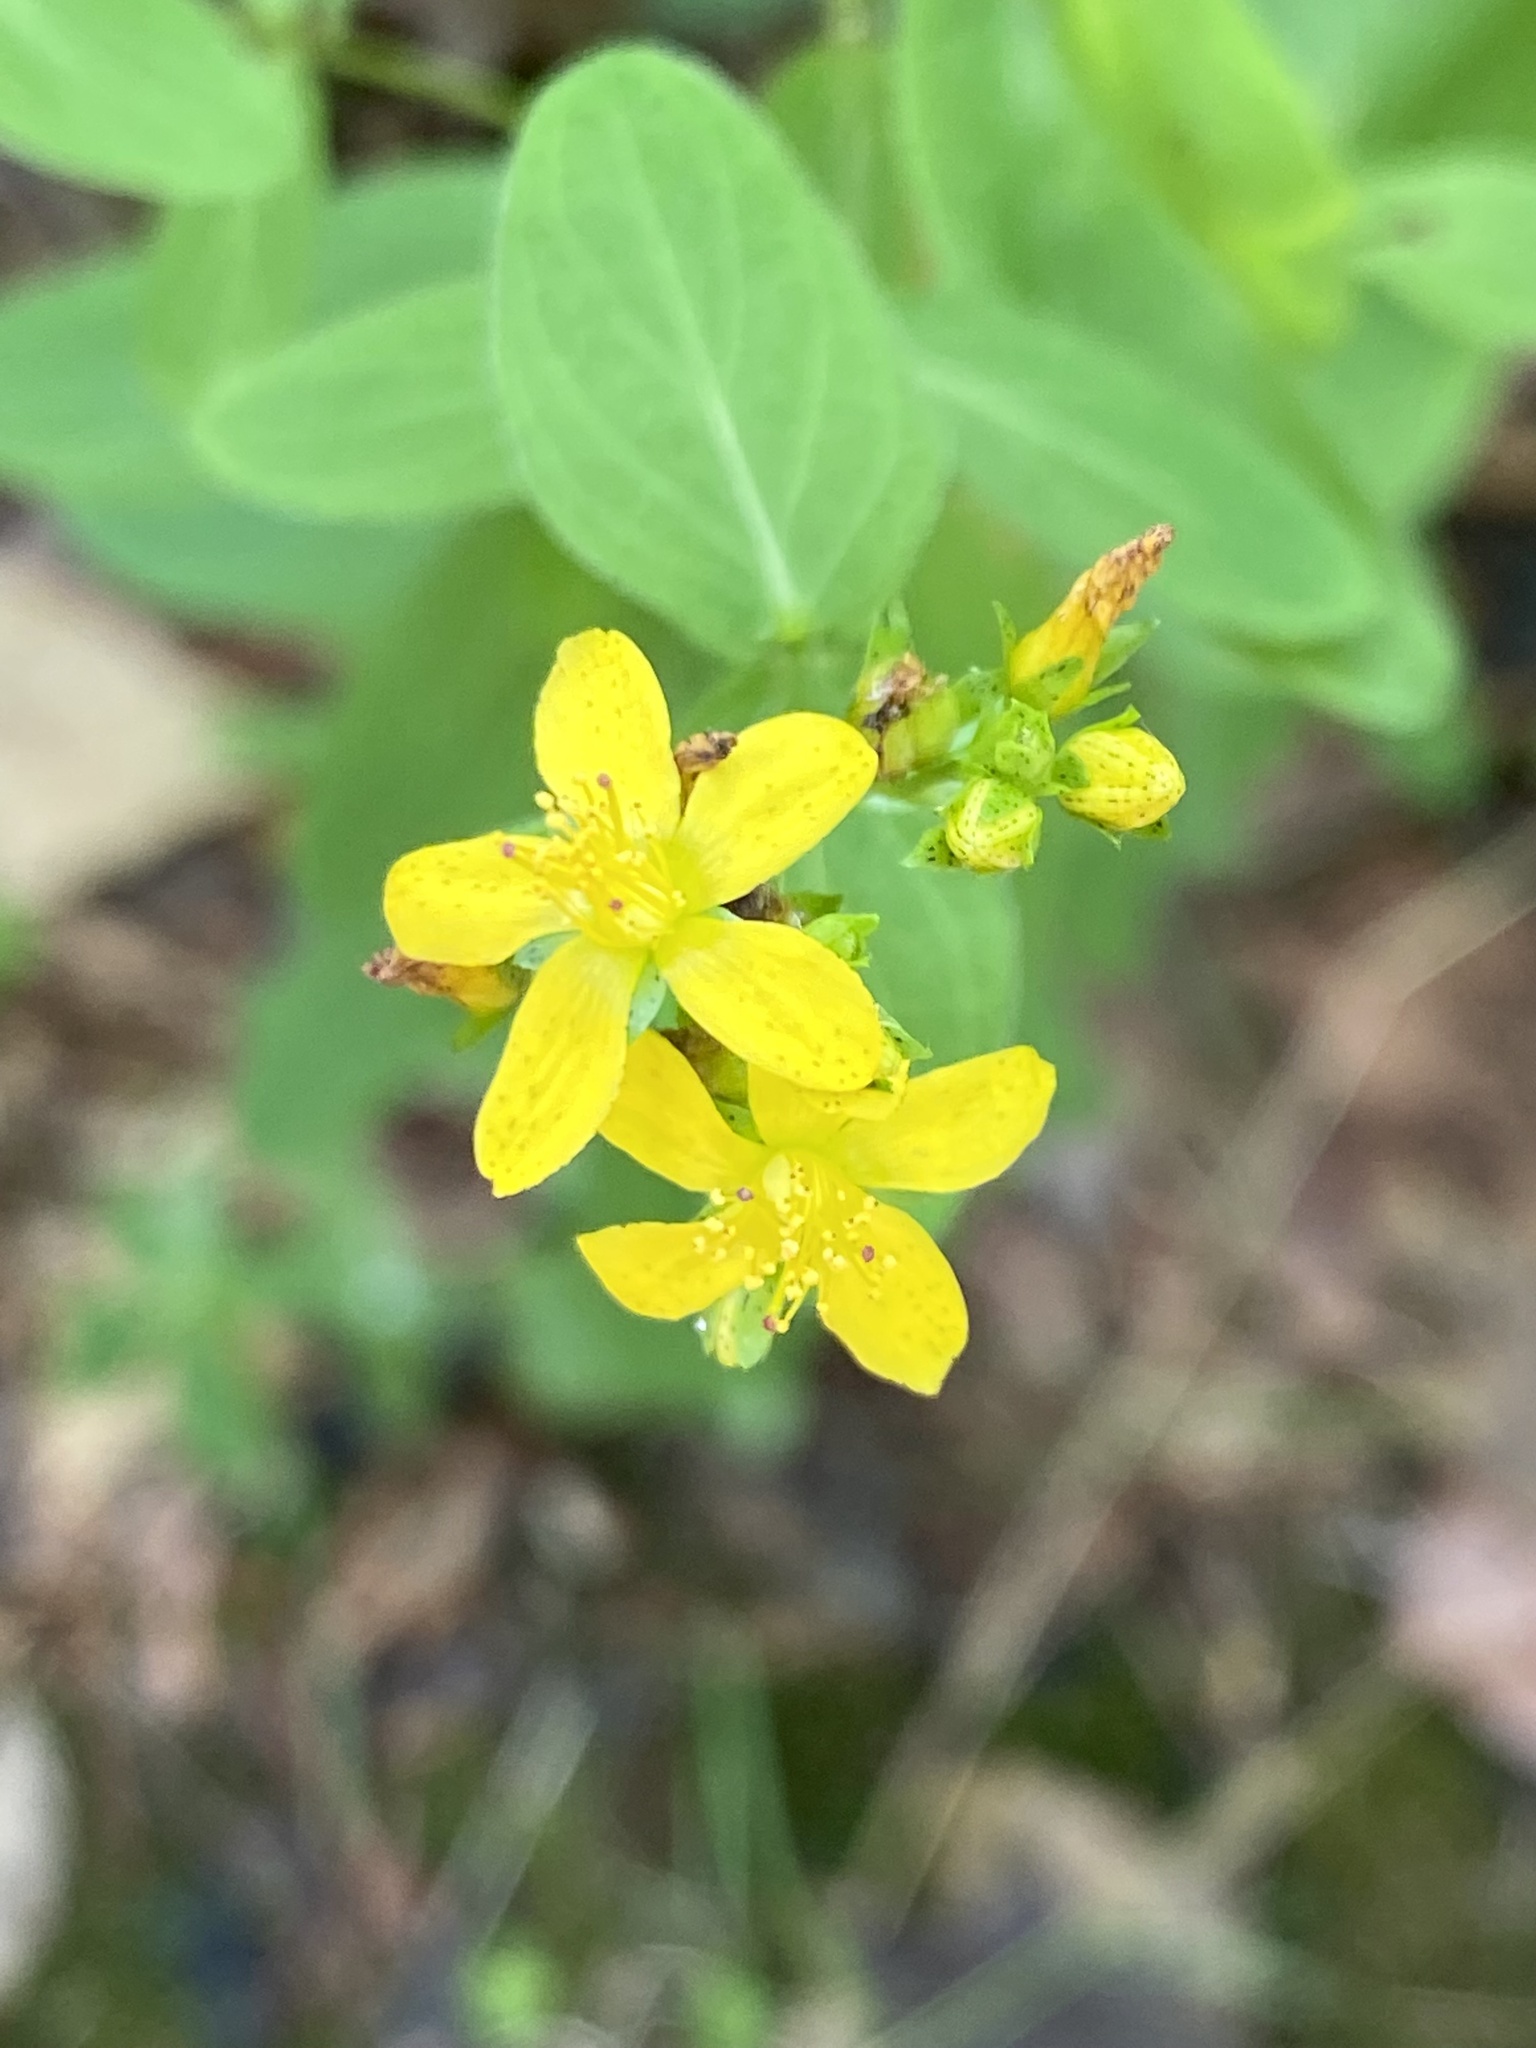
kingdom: Plantae
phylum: Tracheophyta
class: Magnoliopsida
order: Malpighiales
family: Hypericaceae
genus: Hypericum
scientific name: Hypericum punctatum
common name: Spotted st. john's-wort
